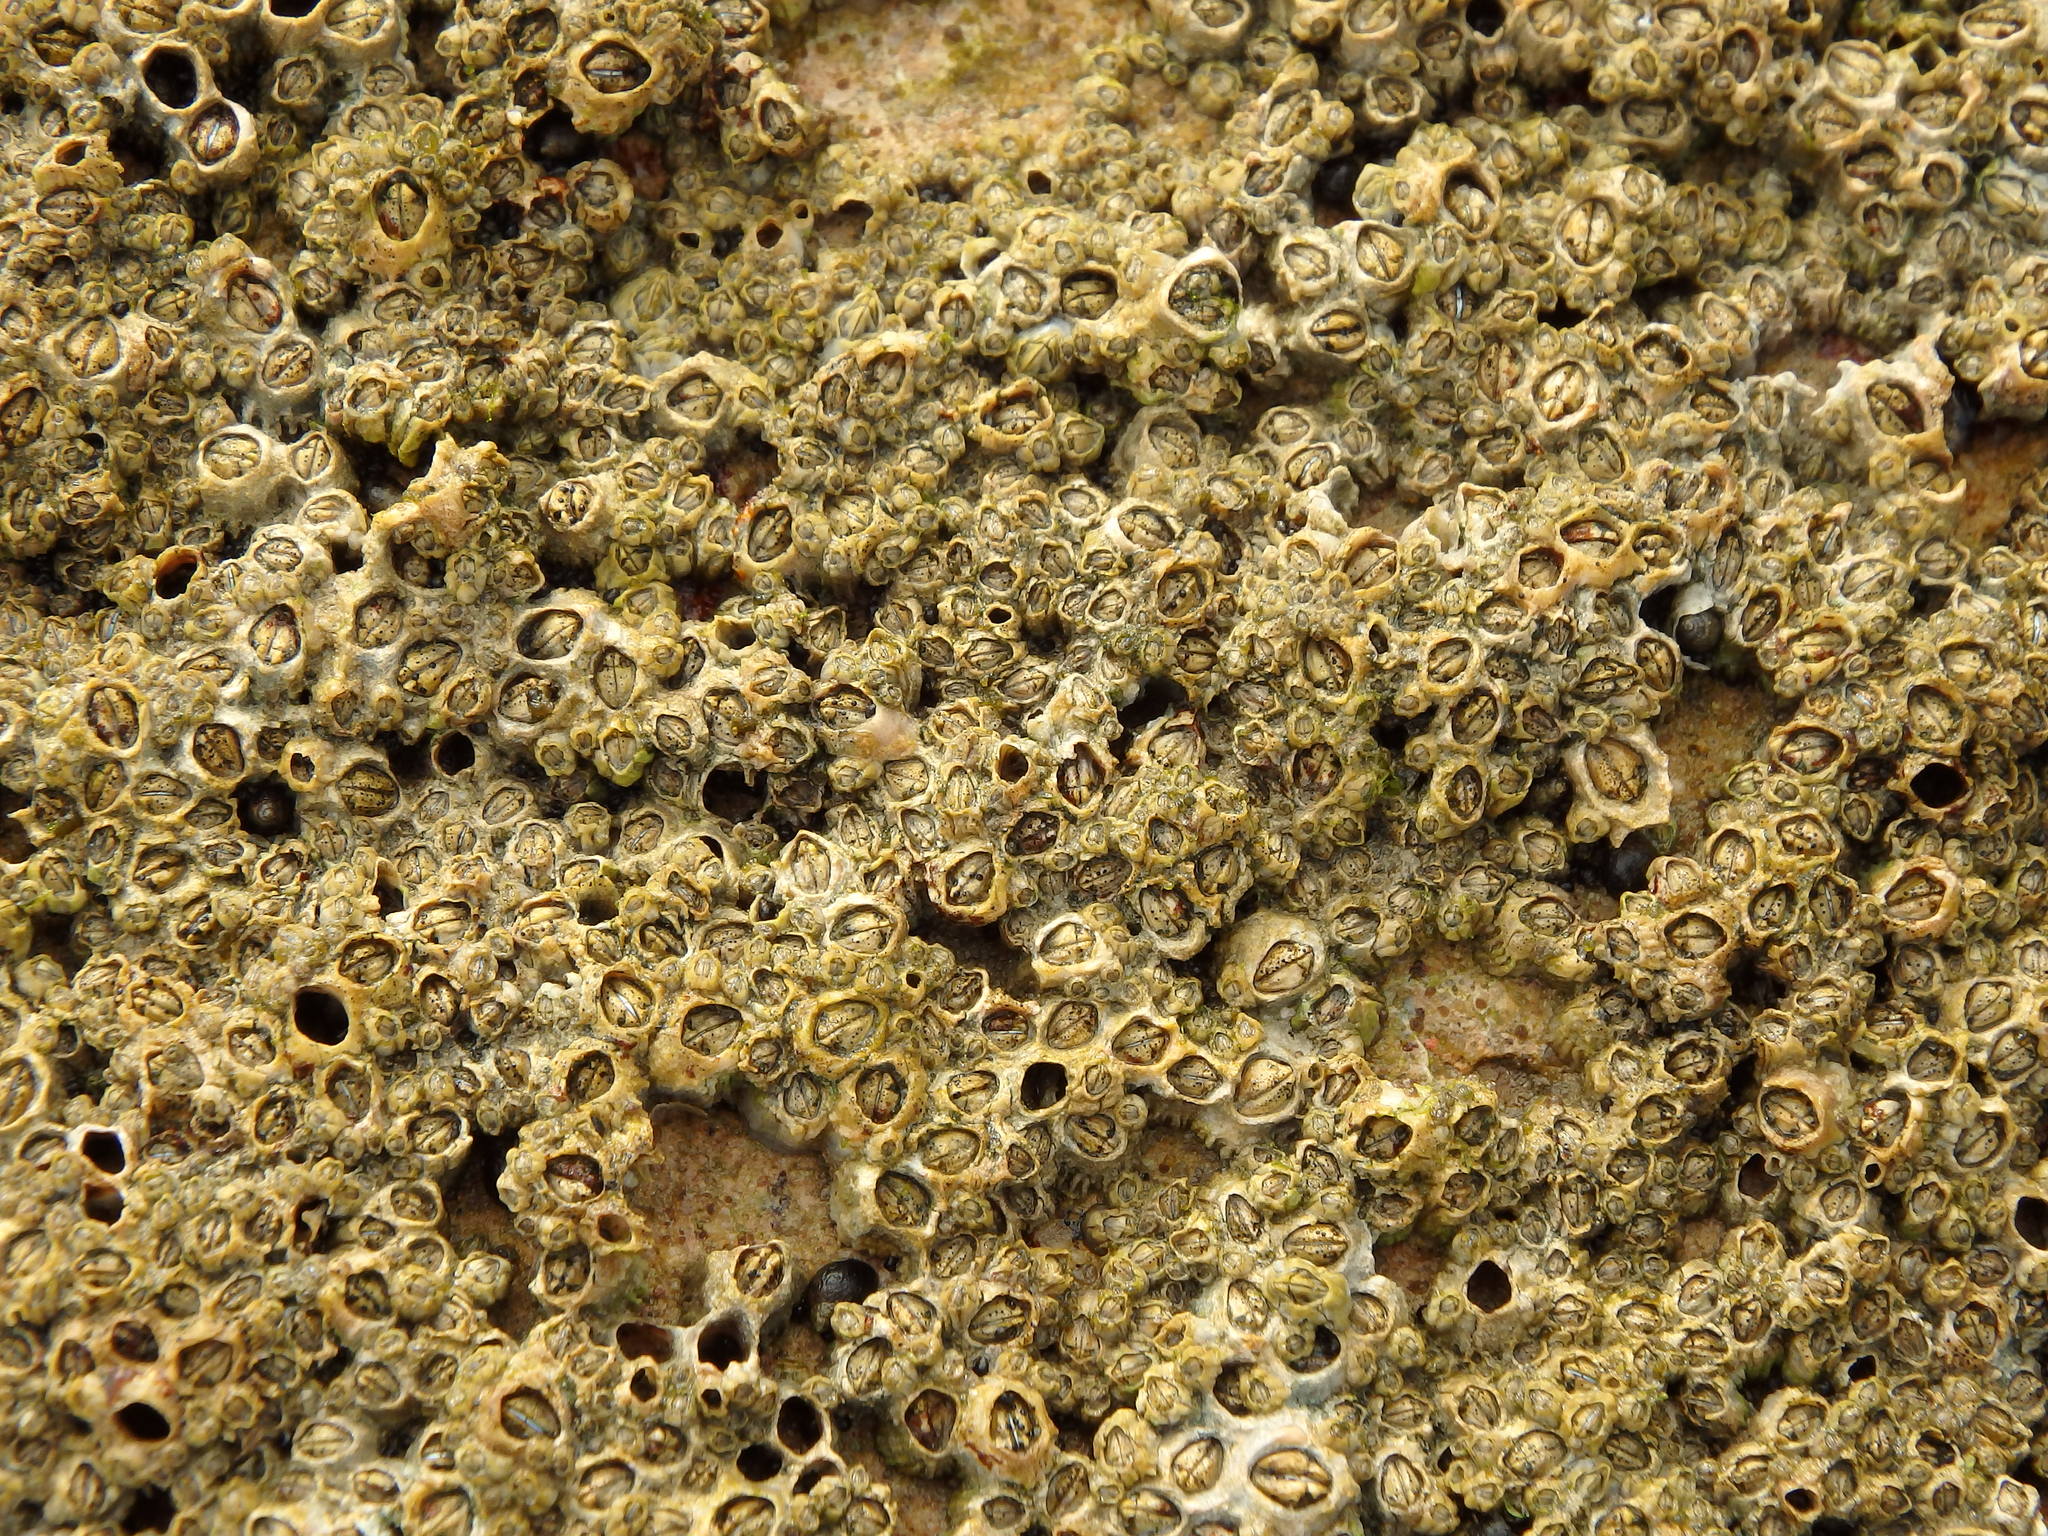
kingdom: Animalia
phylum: Arthropoda
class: Maxillopoda
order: Sessilia
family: Chthamalidae
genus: Chthamalus
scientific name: Chthamalus montagui
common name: Montagu's stellate barnacle
